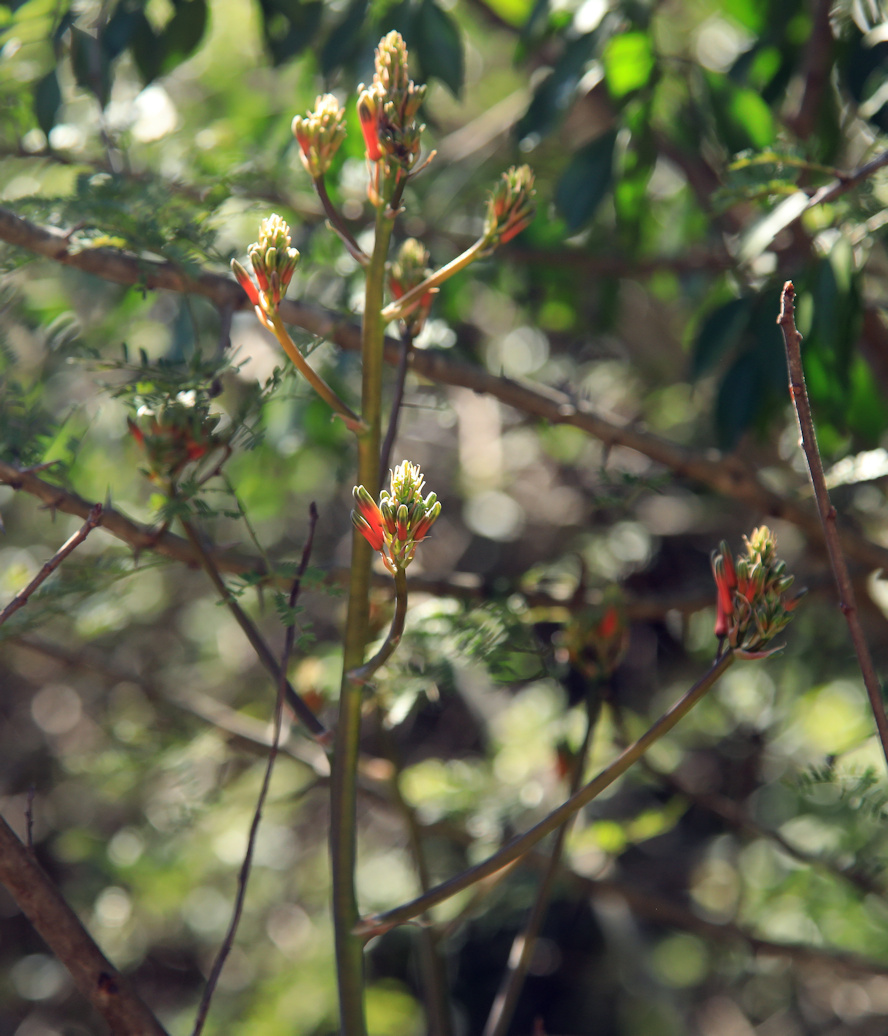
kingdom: Plantae
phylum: Tracheophyta
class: Liliopsida
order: Asparagales
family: Asphodelaceae
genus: Aloe
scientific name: Aloe branddraaiensis
